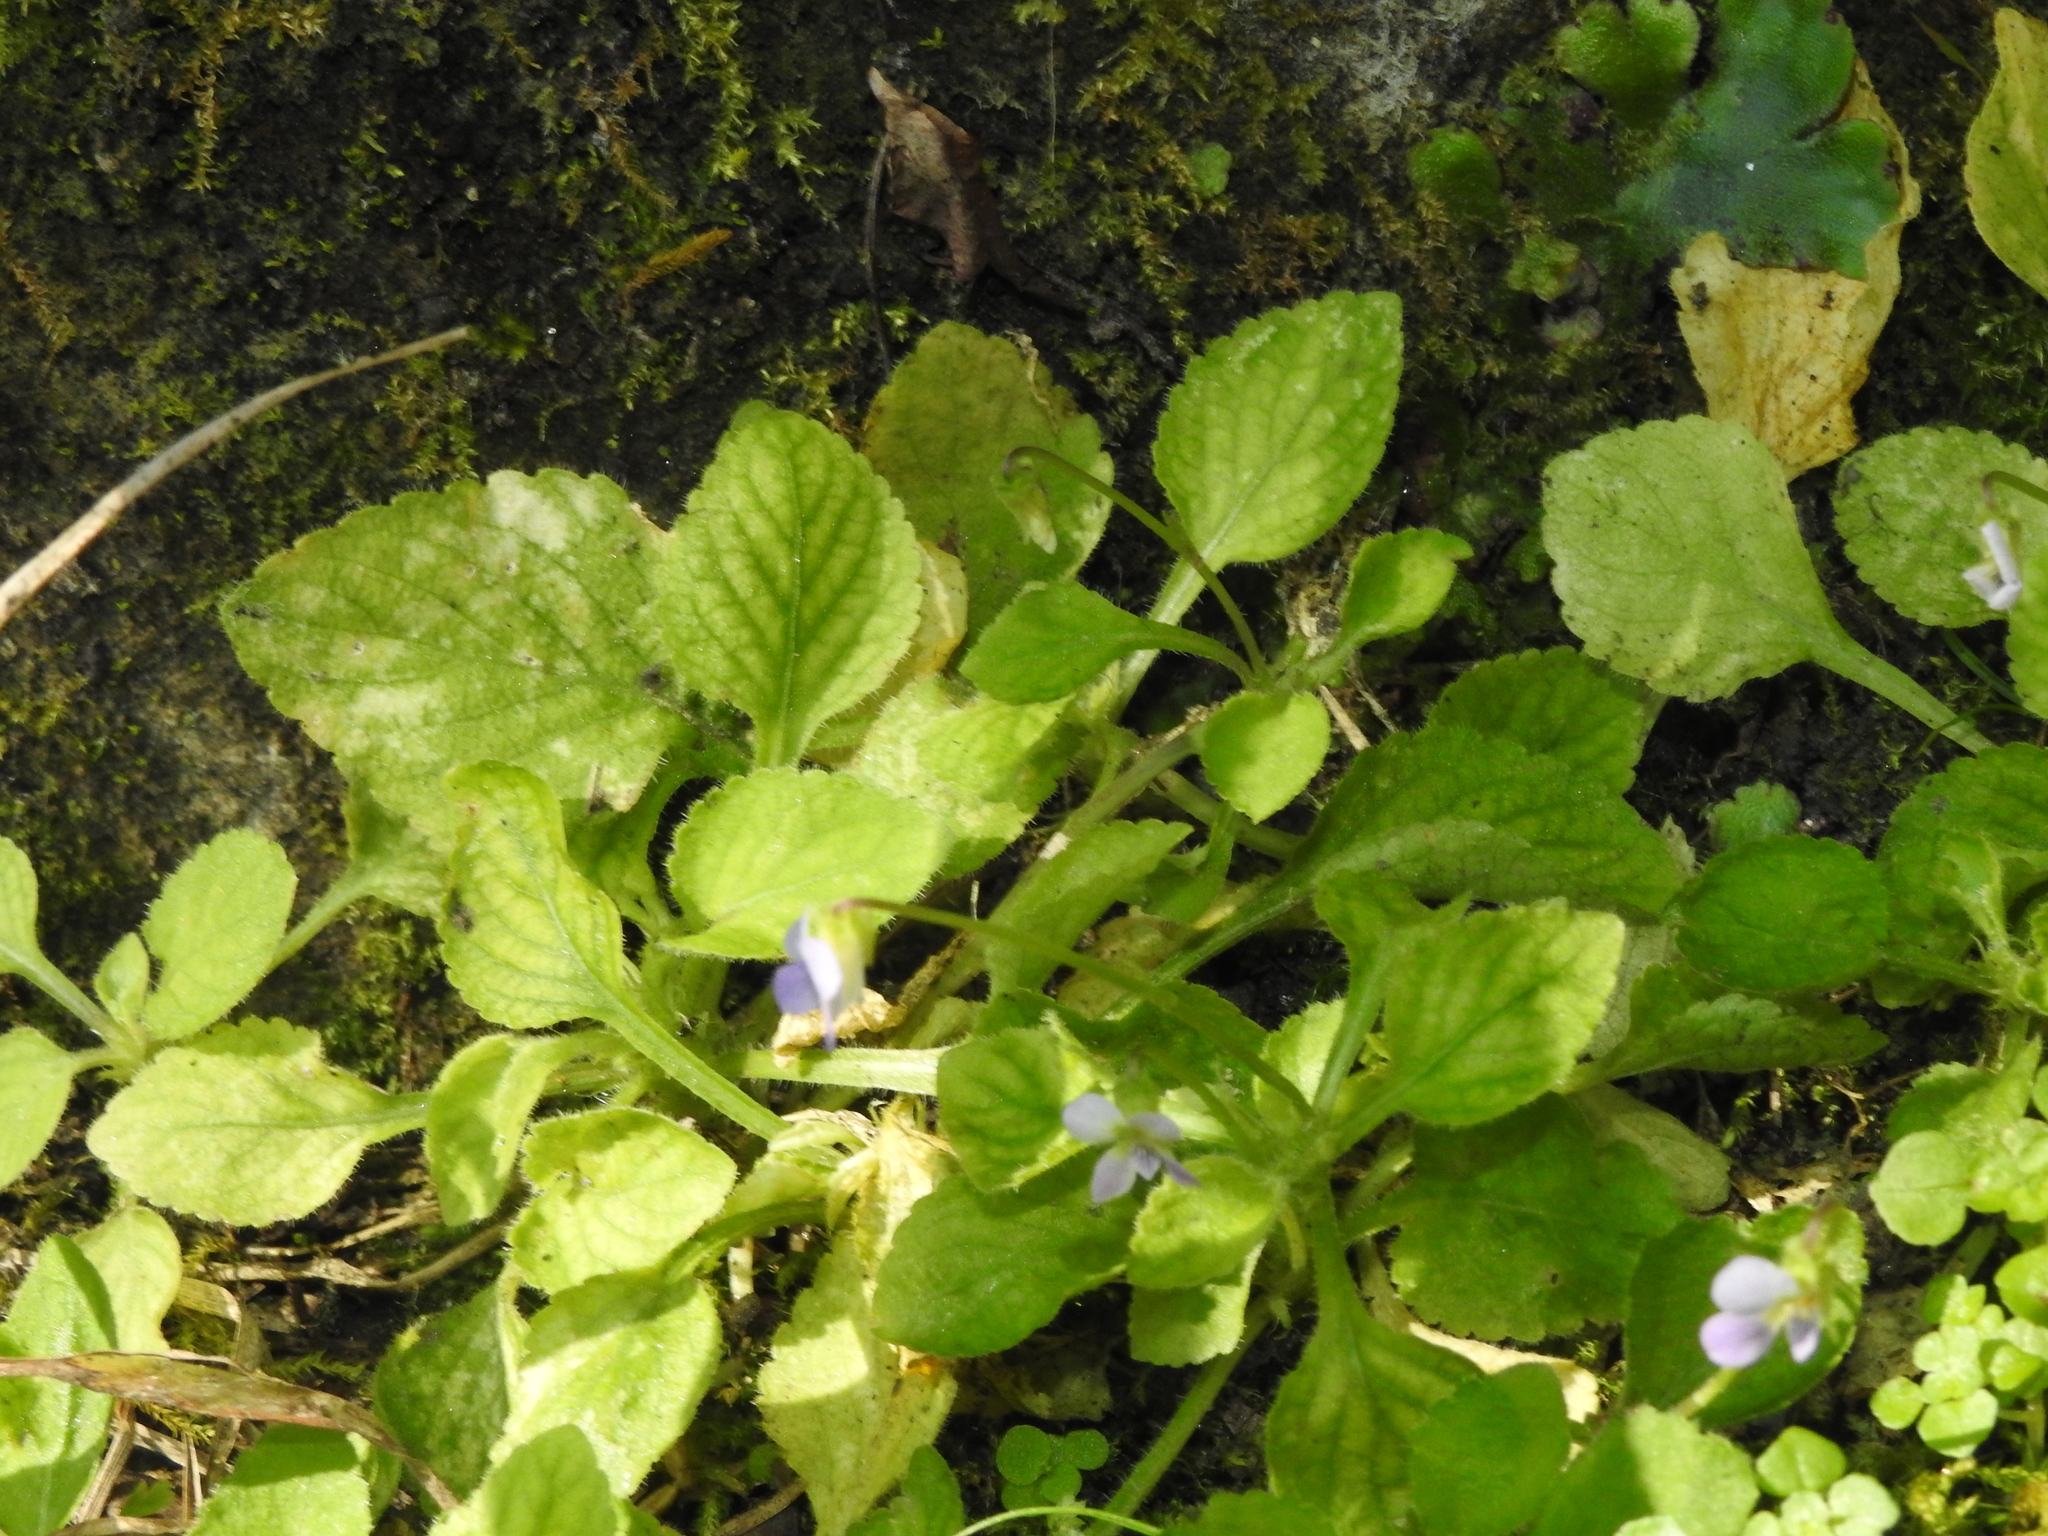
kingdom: Plantae
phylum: Tracheophyta
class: Magnoliopsida
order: Malpighiales
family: Violaceae
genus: Viola
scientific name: Viola diffusa
